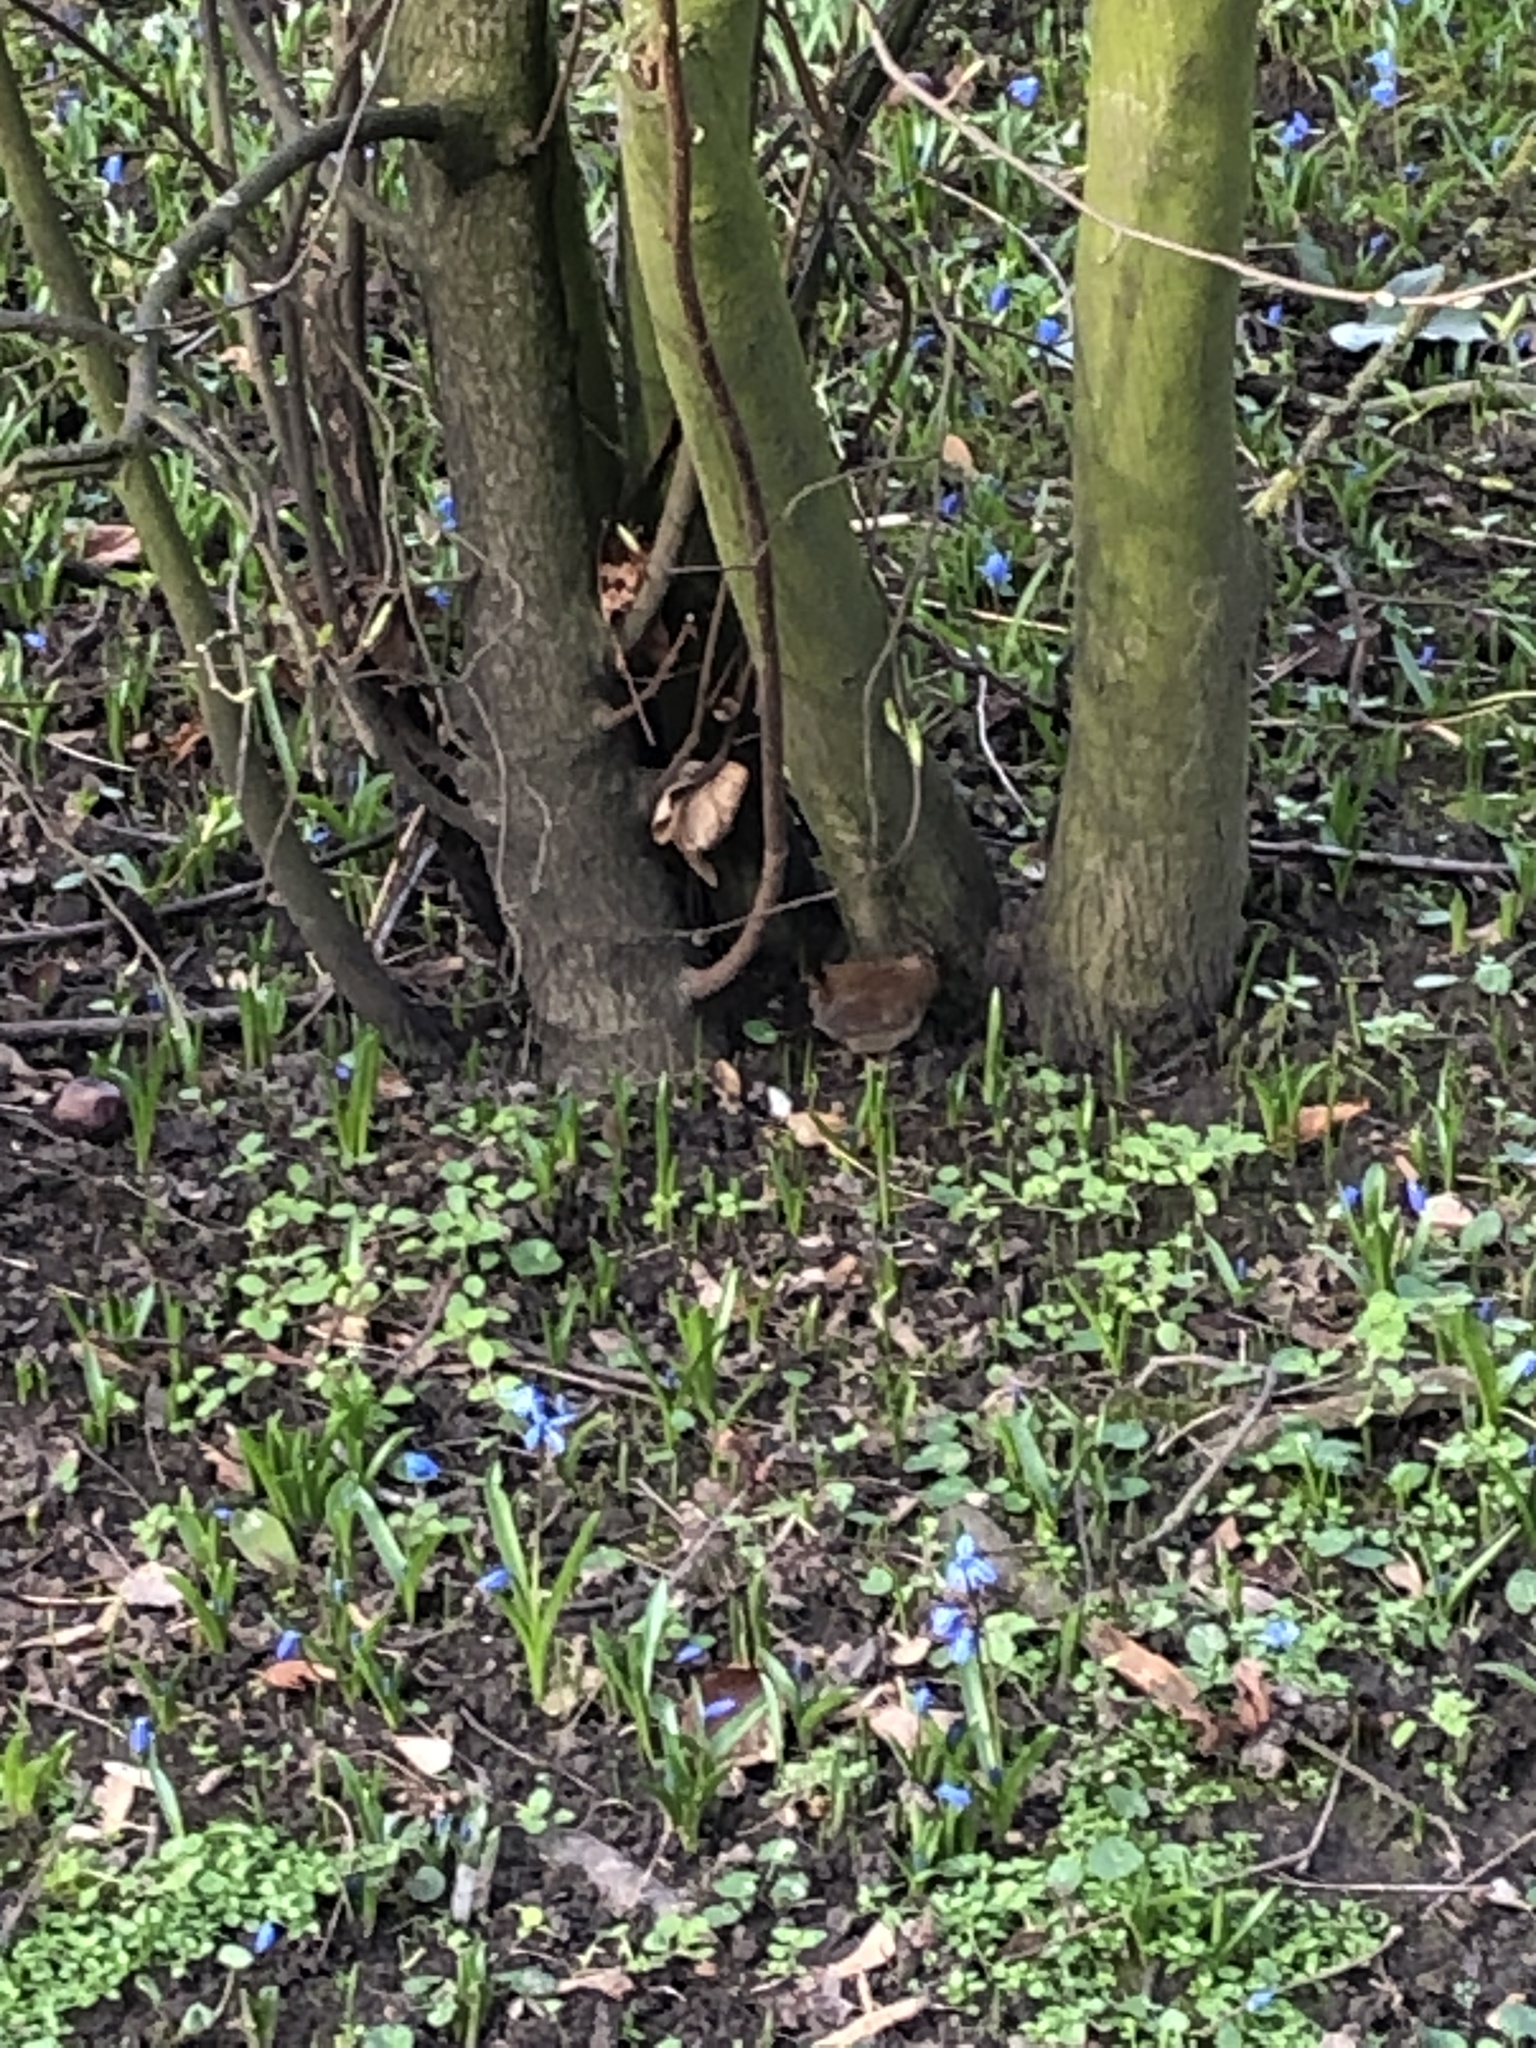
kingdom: Animalia
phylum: Chordata
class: Aves
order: Passeriformes
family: Troglodytidae
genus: Troglodytes
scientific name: Troglodytes troglodytes
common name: Eurasian wren
